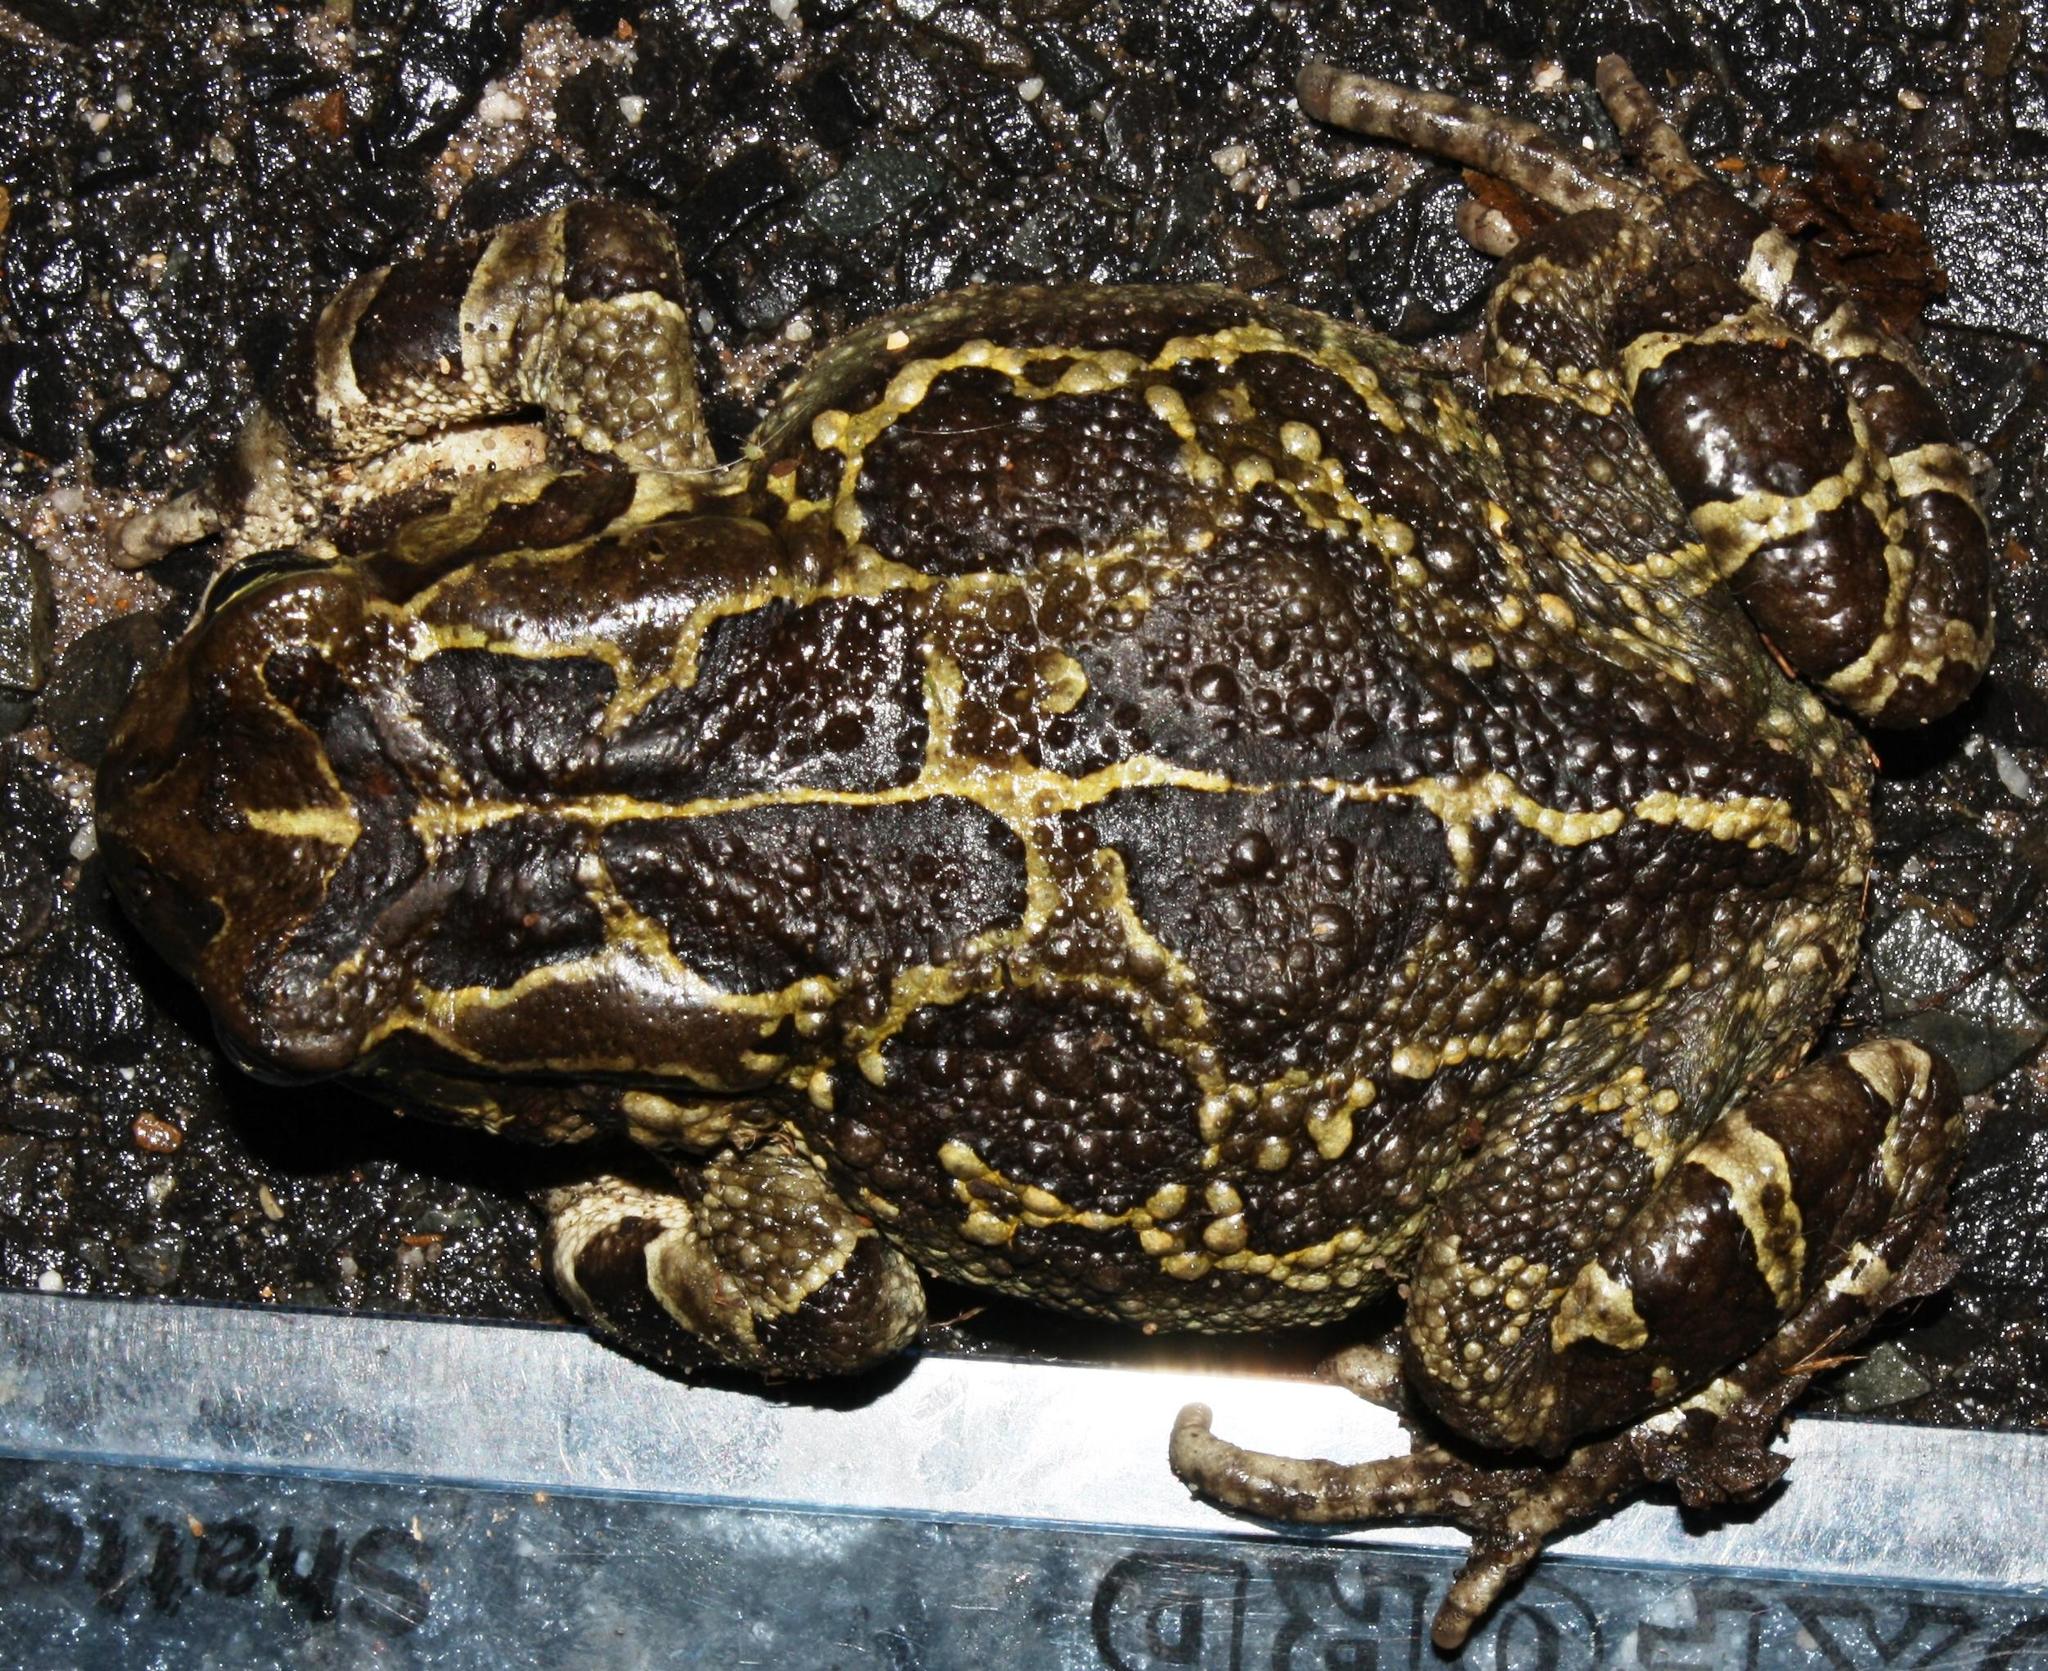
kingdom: Animalia
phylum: Chordata
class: Amphibia
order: Anura
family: Bufonidae
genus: Sclerophrys
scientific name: Sclerophrys pantherina
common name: Panther toad
